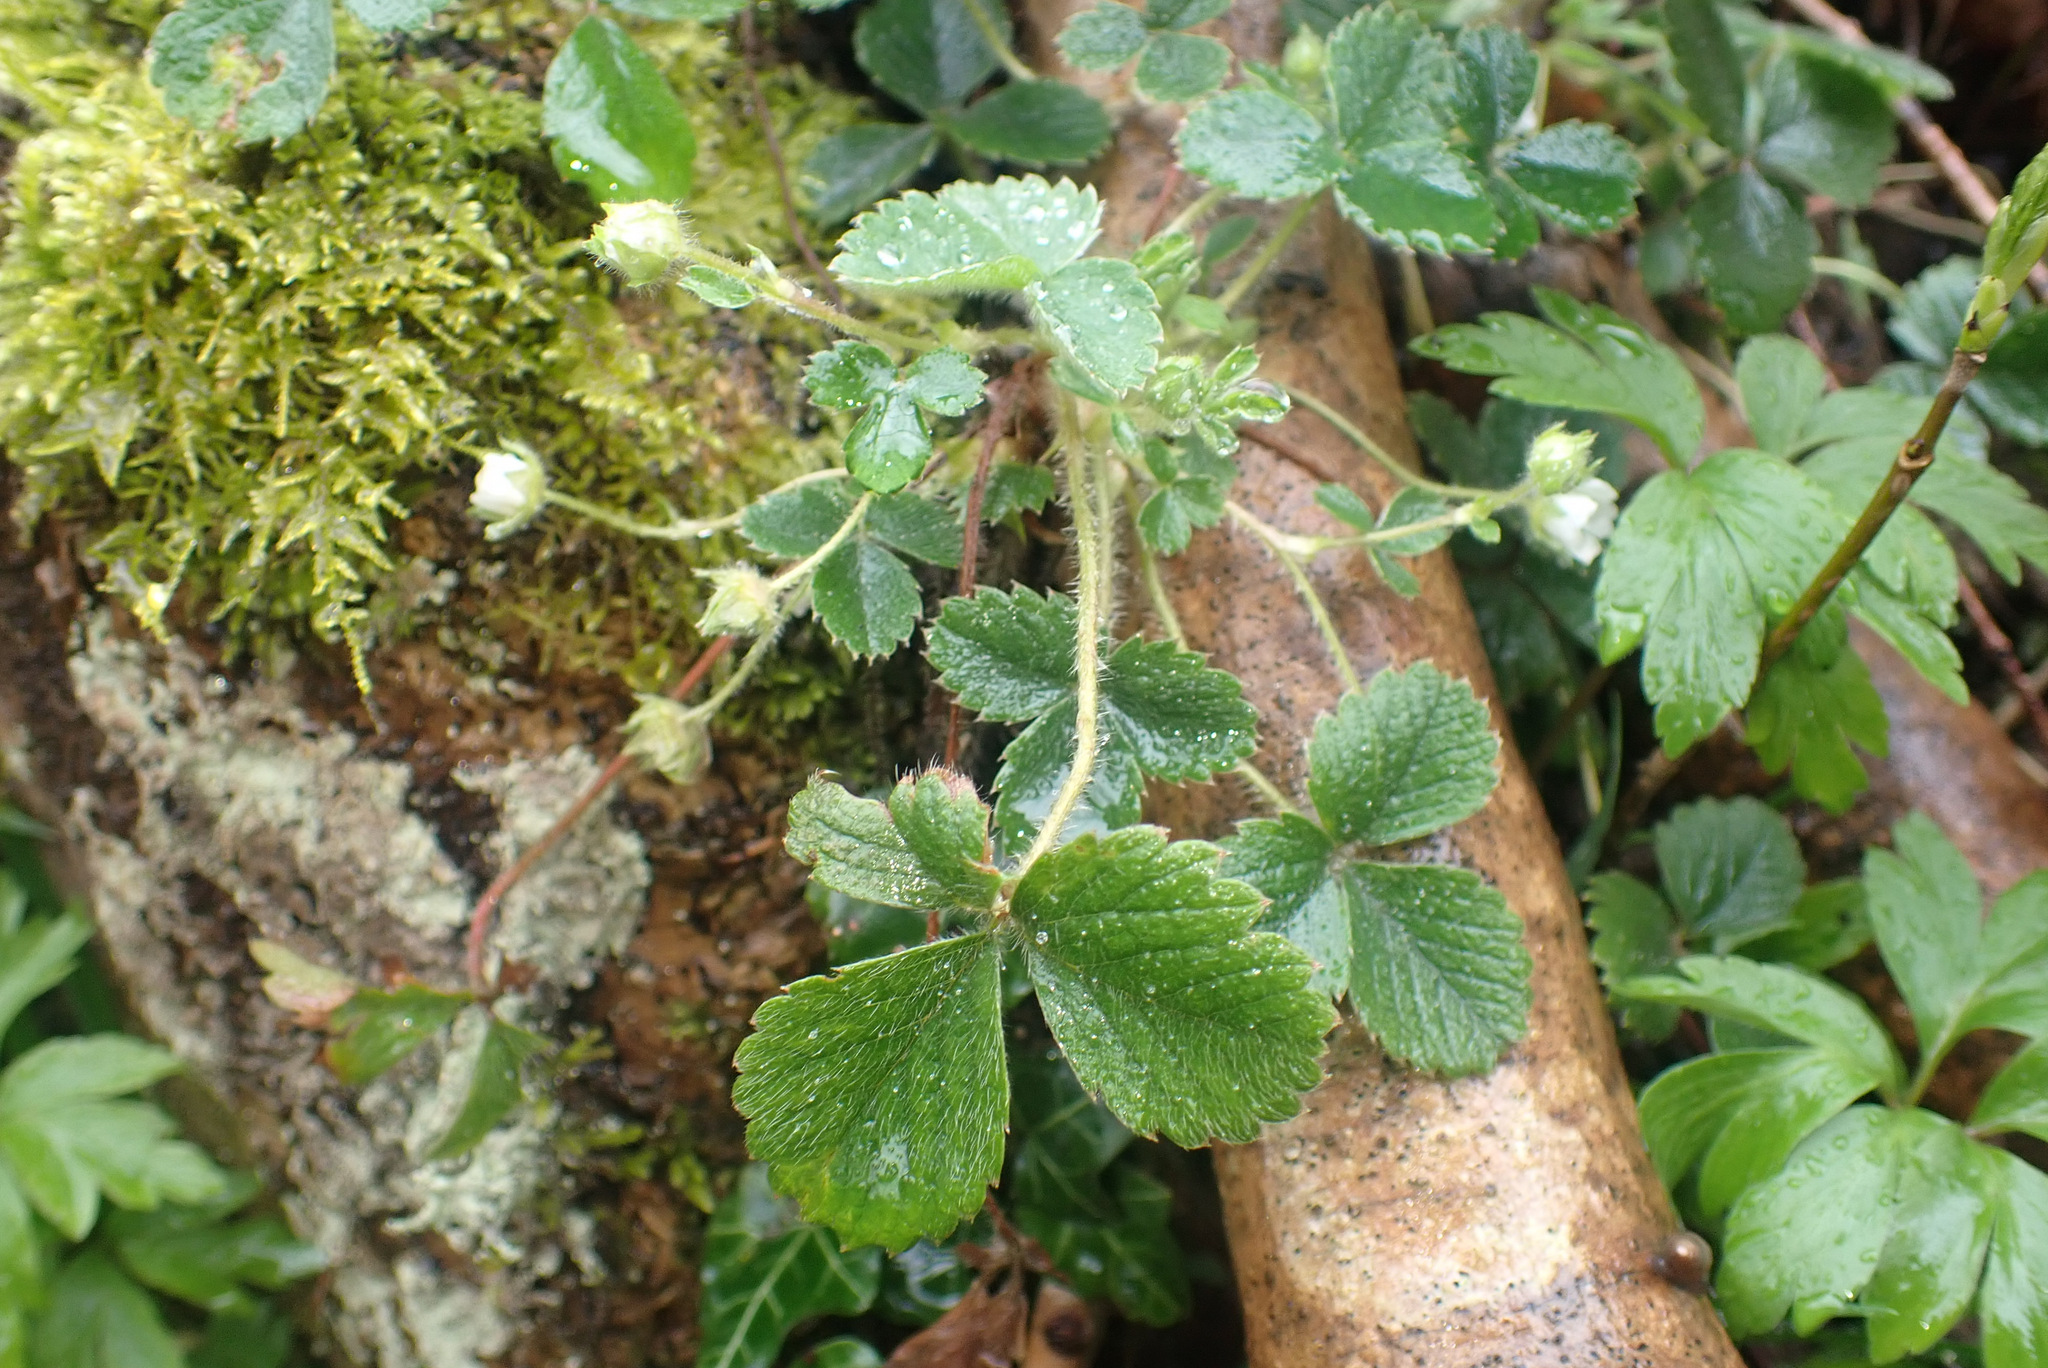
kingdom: Plantae
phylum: Tracheophyta
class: Magnoliopsida
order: Rosales
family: Rosaceae
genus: Potentilla
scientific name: Potentilla sterilis
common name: Barren strawberry
